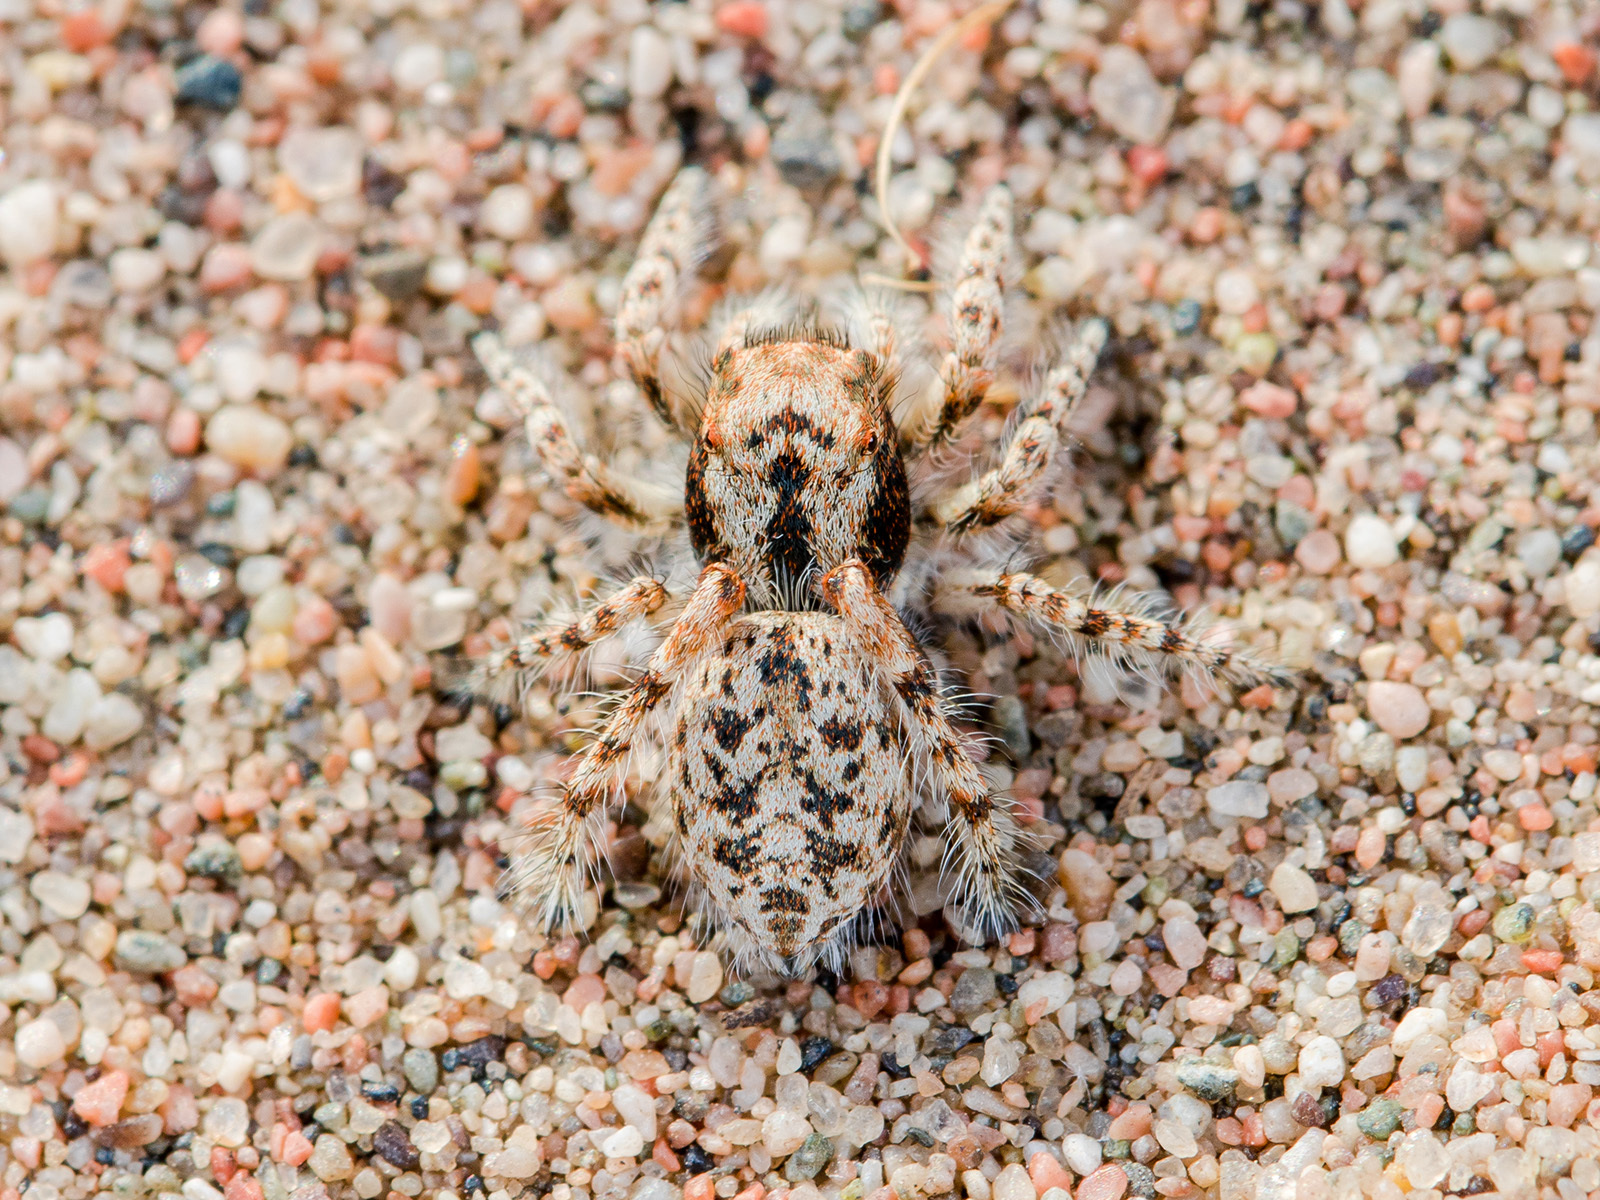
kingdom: Animalia
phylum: Arthropoda
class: Arachnida
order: Araneae
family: Salticidae
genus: Yllenus
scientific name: Yllenus uiguricus
